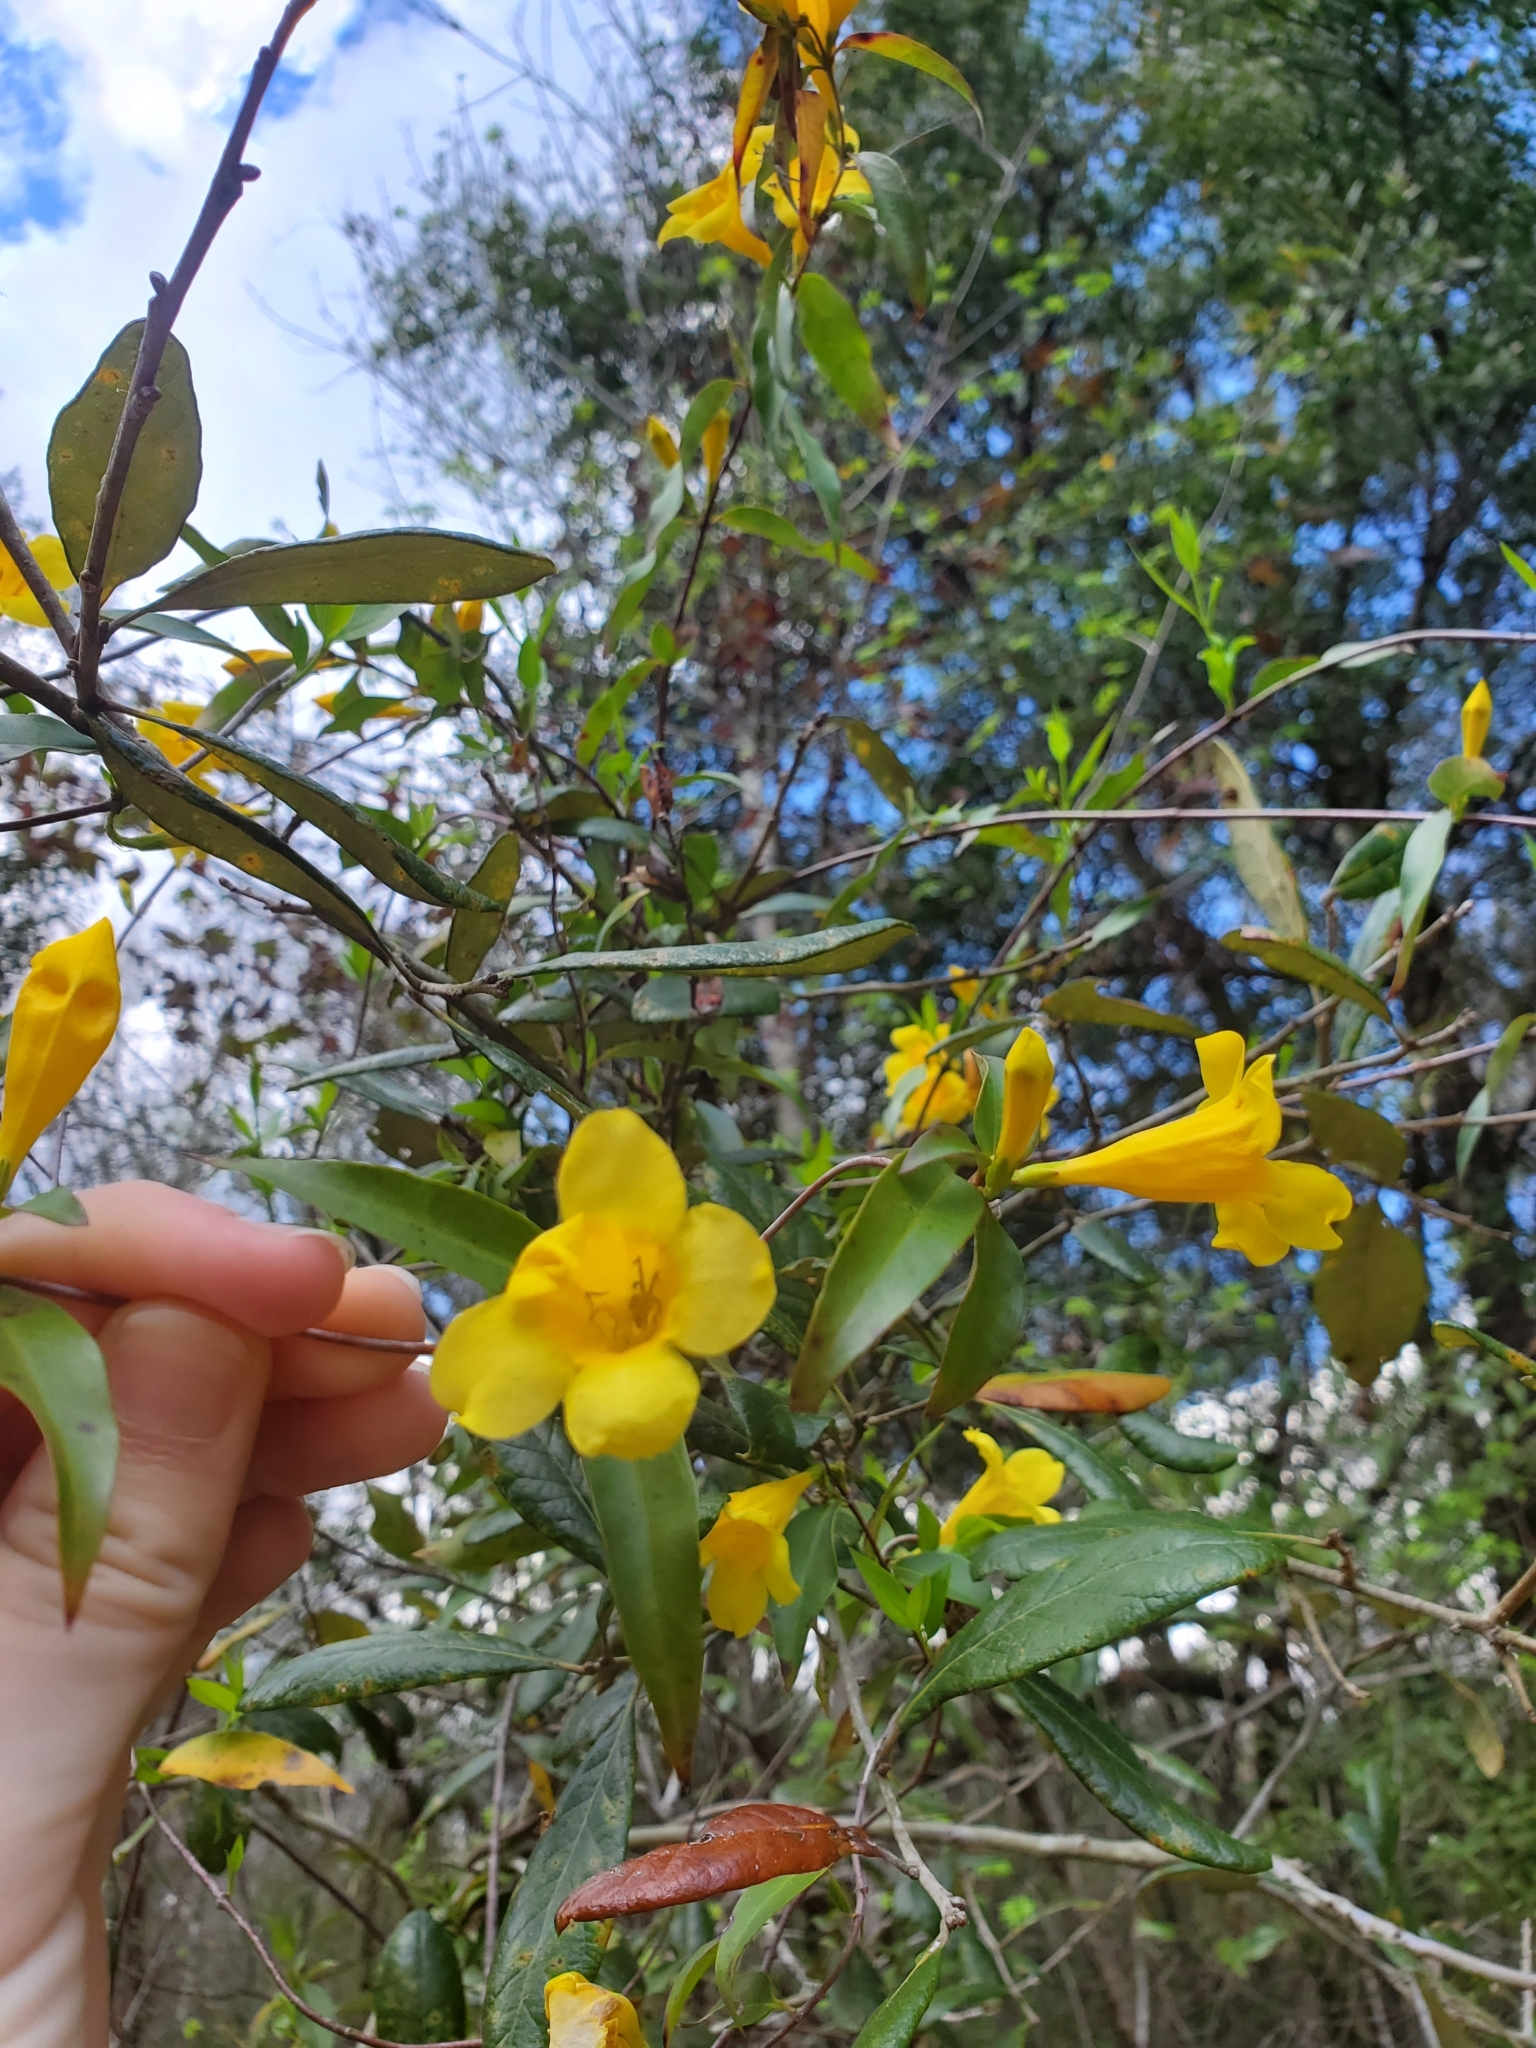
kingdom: Plantae
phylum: Tracheophyta
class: Magnoliopsida
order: Gentianales
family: Gelsemiaceae
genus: Gelsemium
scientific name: Gelsemium sempervirens
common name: Carolina-jasmine
